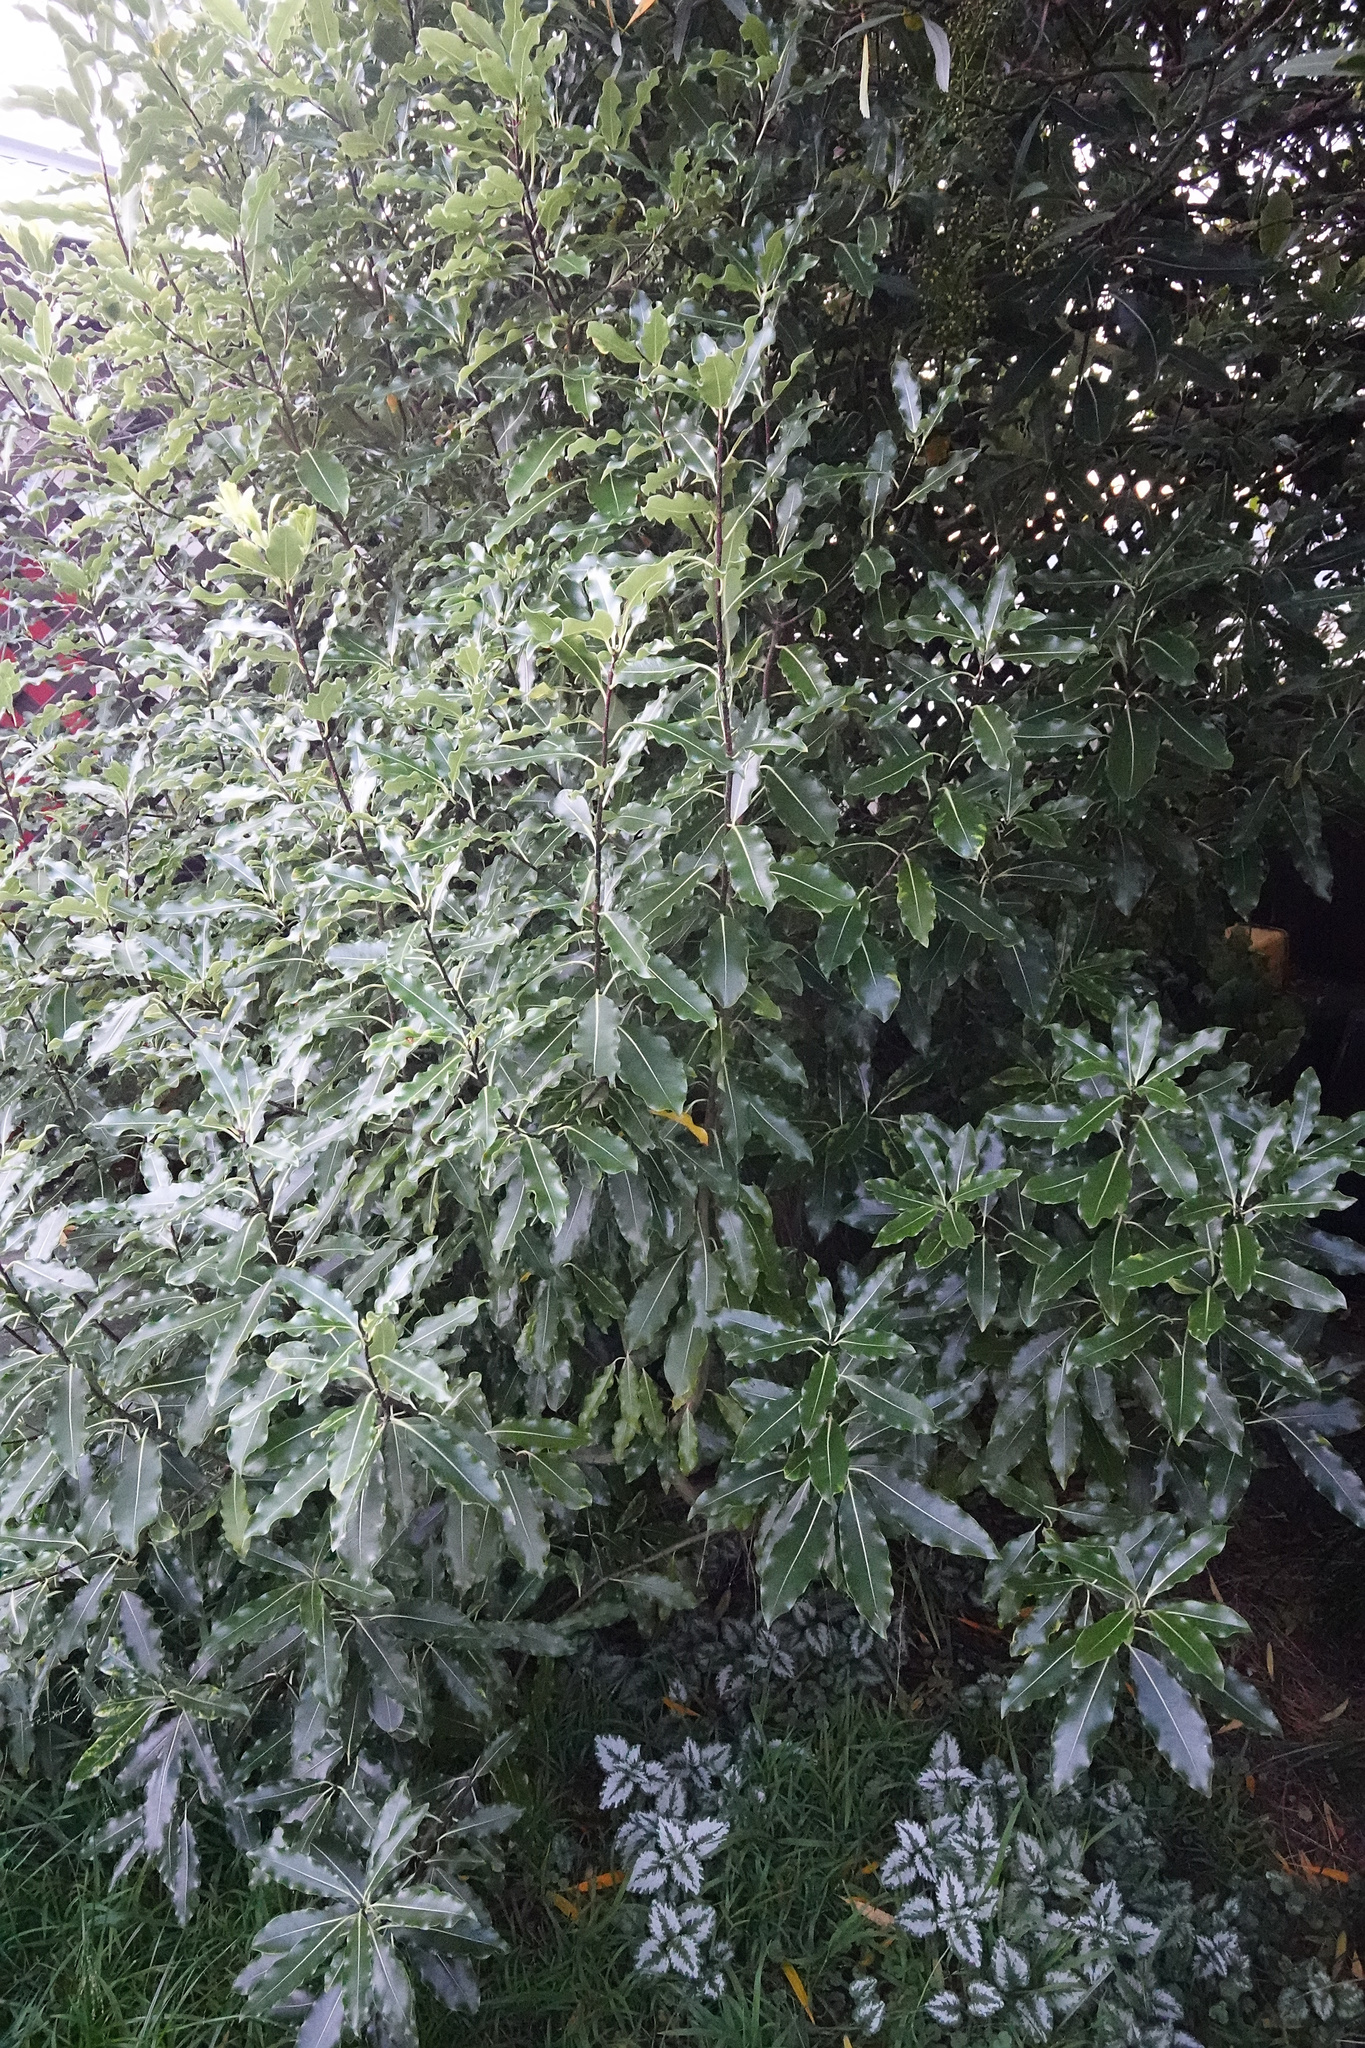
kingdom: Plantae
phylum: Tracheophyta
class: Magnoliopsida
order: Apiales
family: Pittosporaceae
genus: Pittosporum
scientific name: Pittosporum eugenioides
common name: Lemonwood
